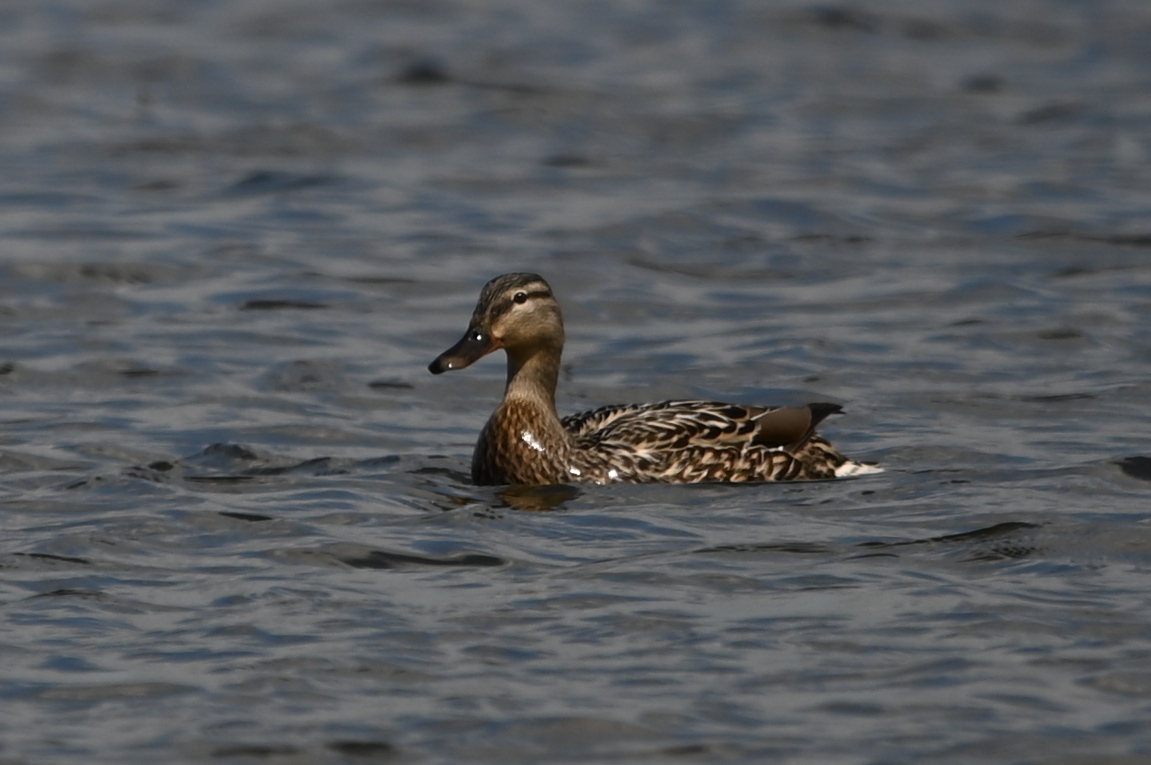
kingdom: Animalia
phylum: Chordata
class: Aves
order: Anseriformes
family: Anatidae
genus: Anas
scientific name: Anas platyrhynchos
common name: Mallard
